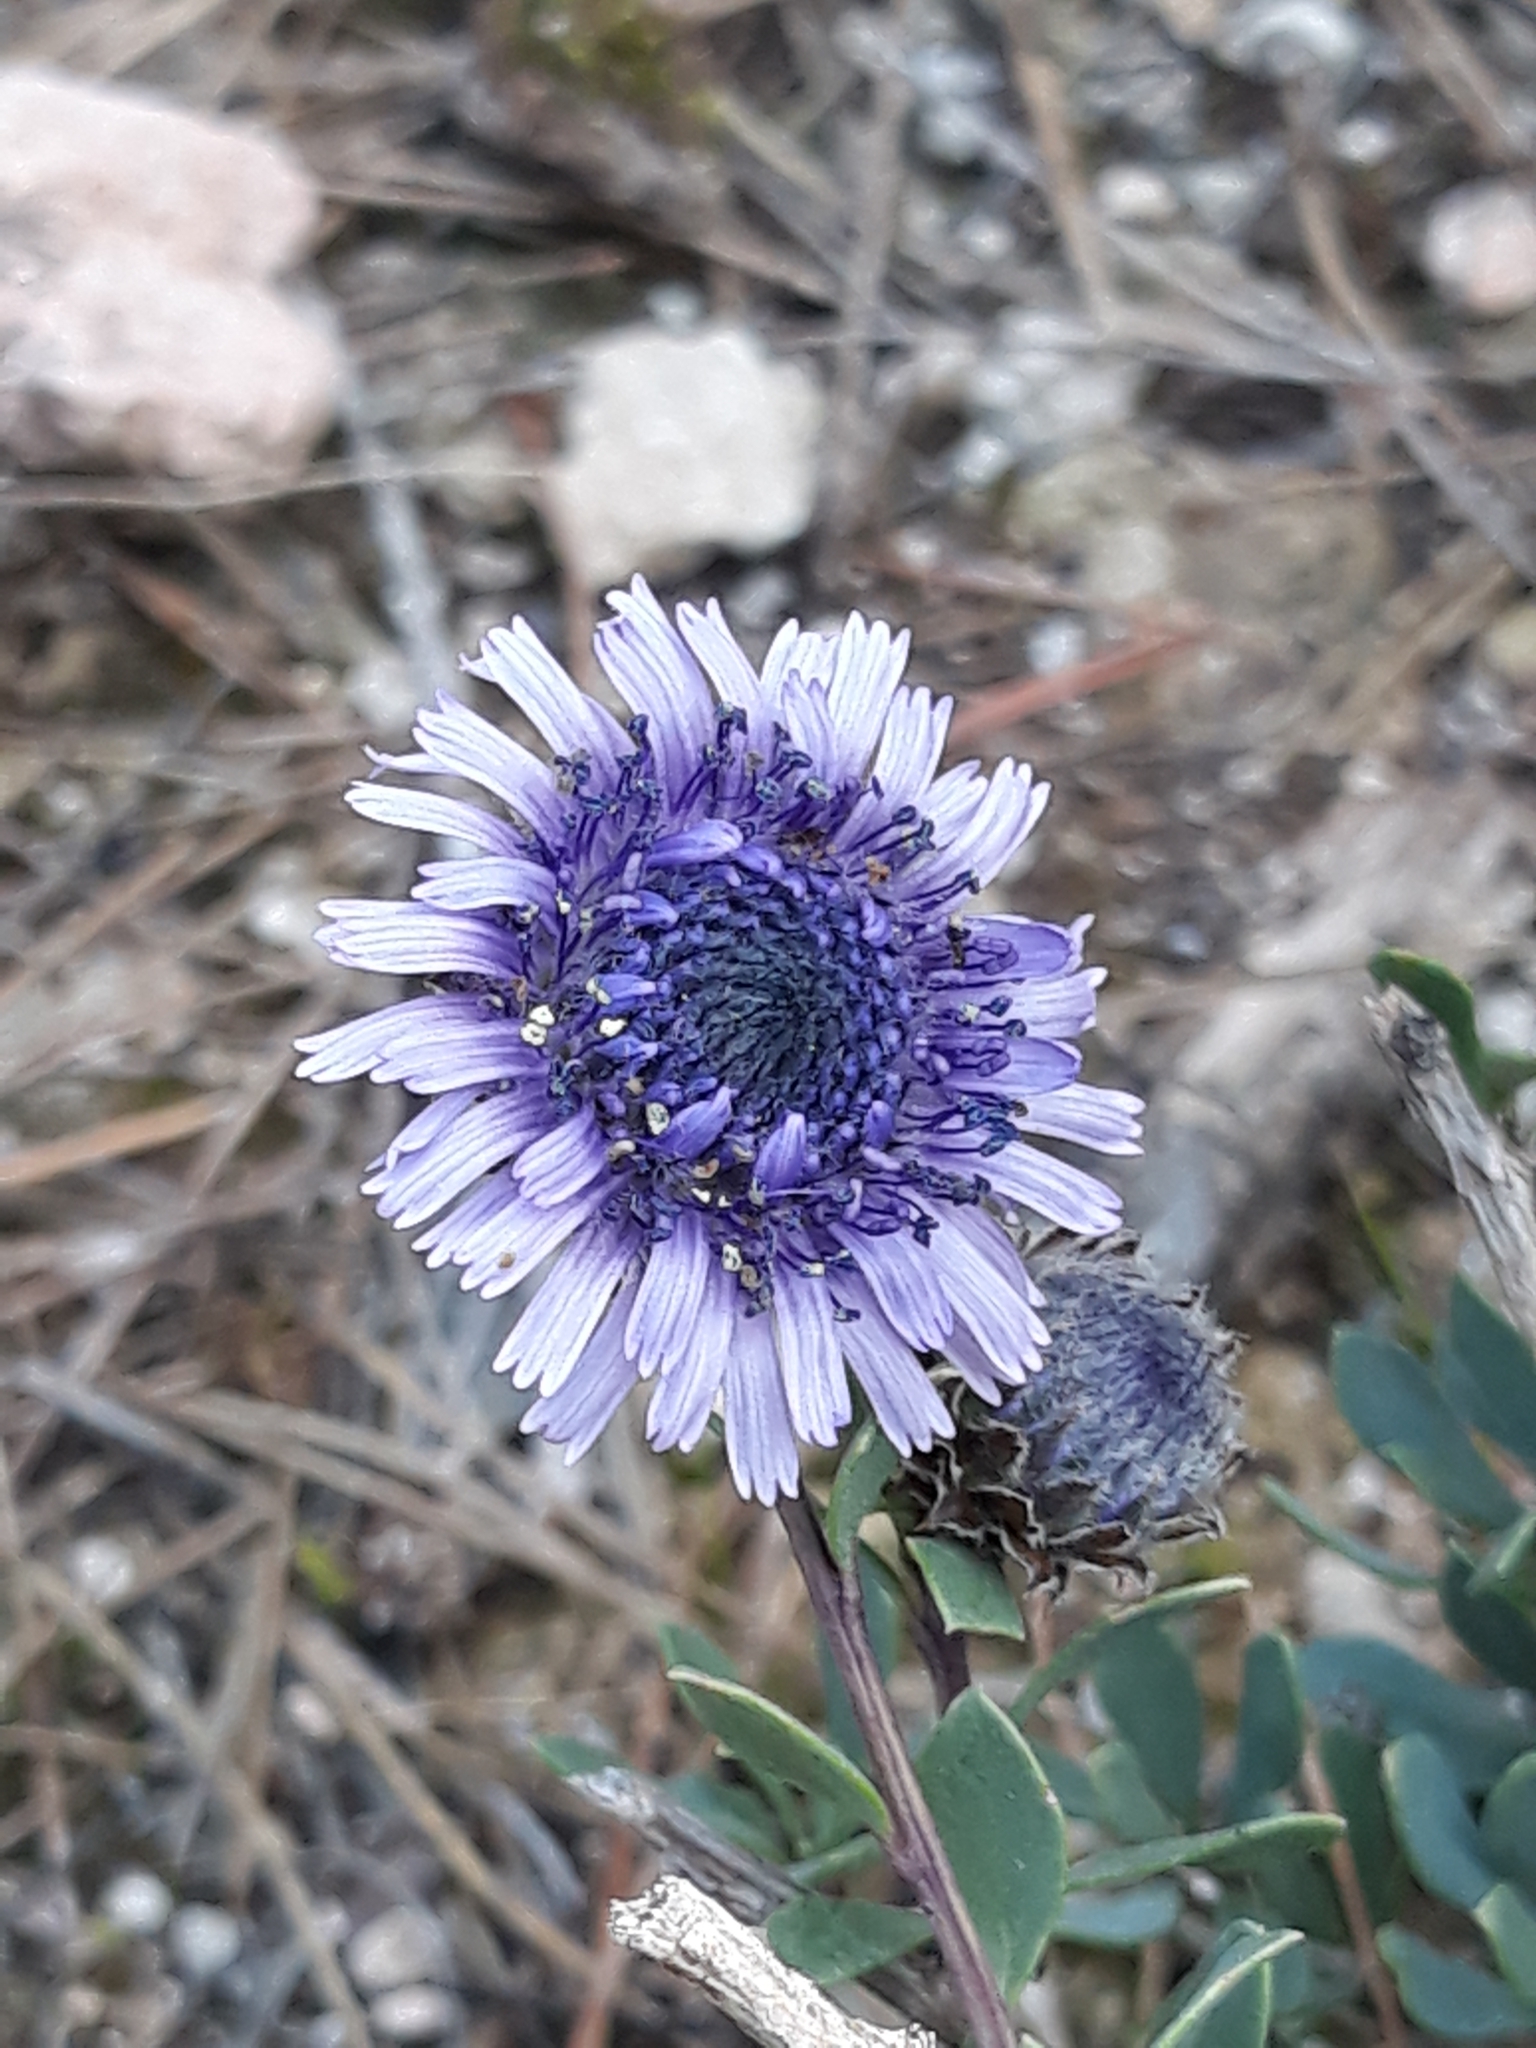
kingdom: Plantae
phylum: Tracheophyta
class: Magnoliopsida
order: Lamiales
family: Plantaginaceae
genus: Globularia
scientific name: Globularia alypum
